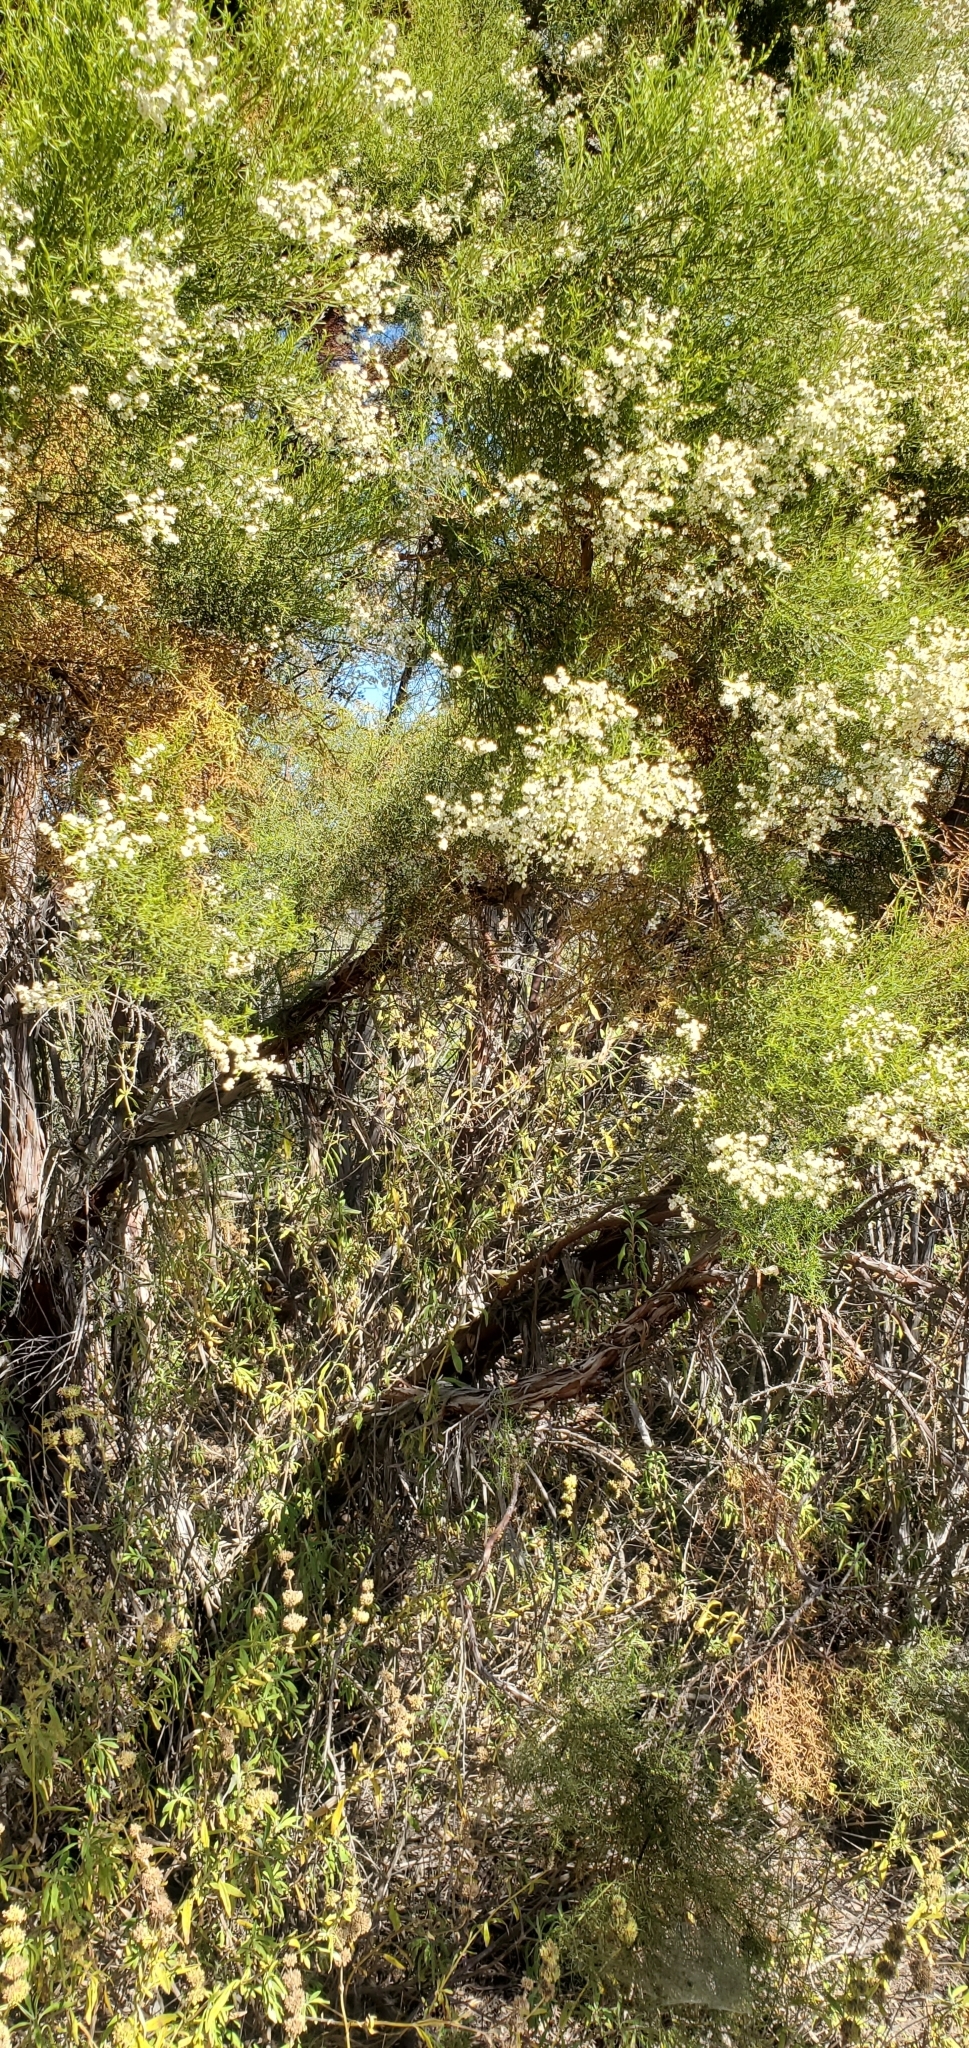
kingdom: Plantae
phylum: Tracheophyta
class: Magnoliopsida
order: Rosales
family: Rosaceae
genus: Adenostoma
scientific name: Adenostoma sparsifolium
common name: Red shank
